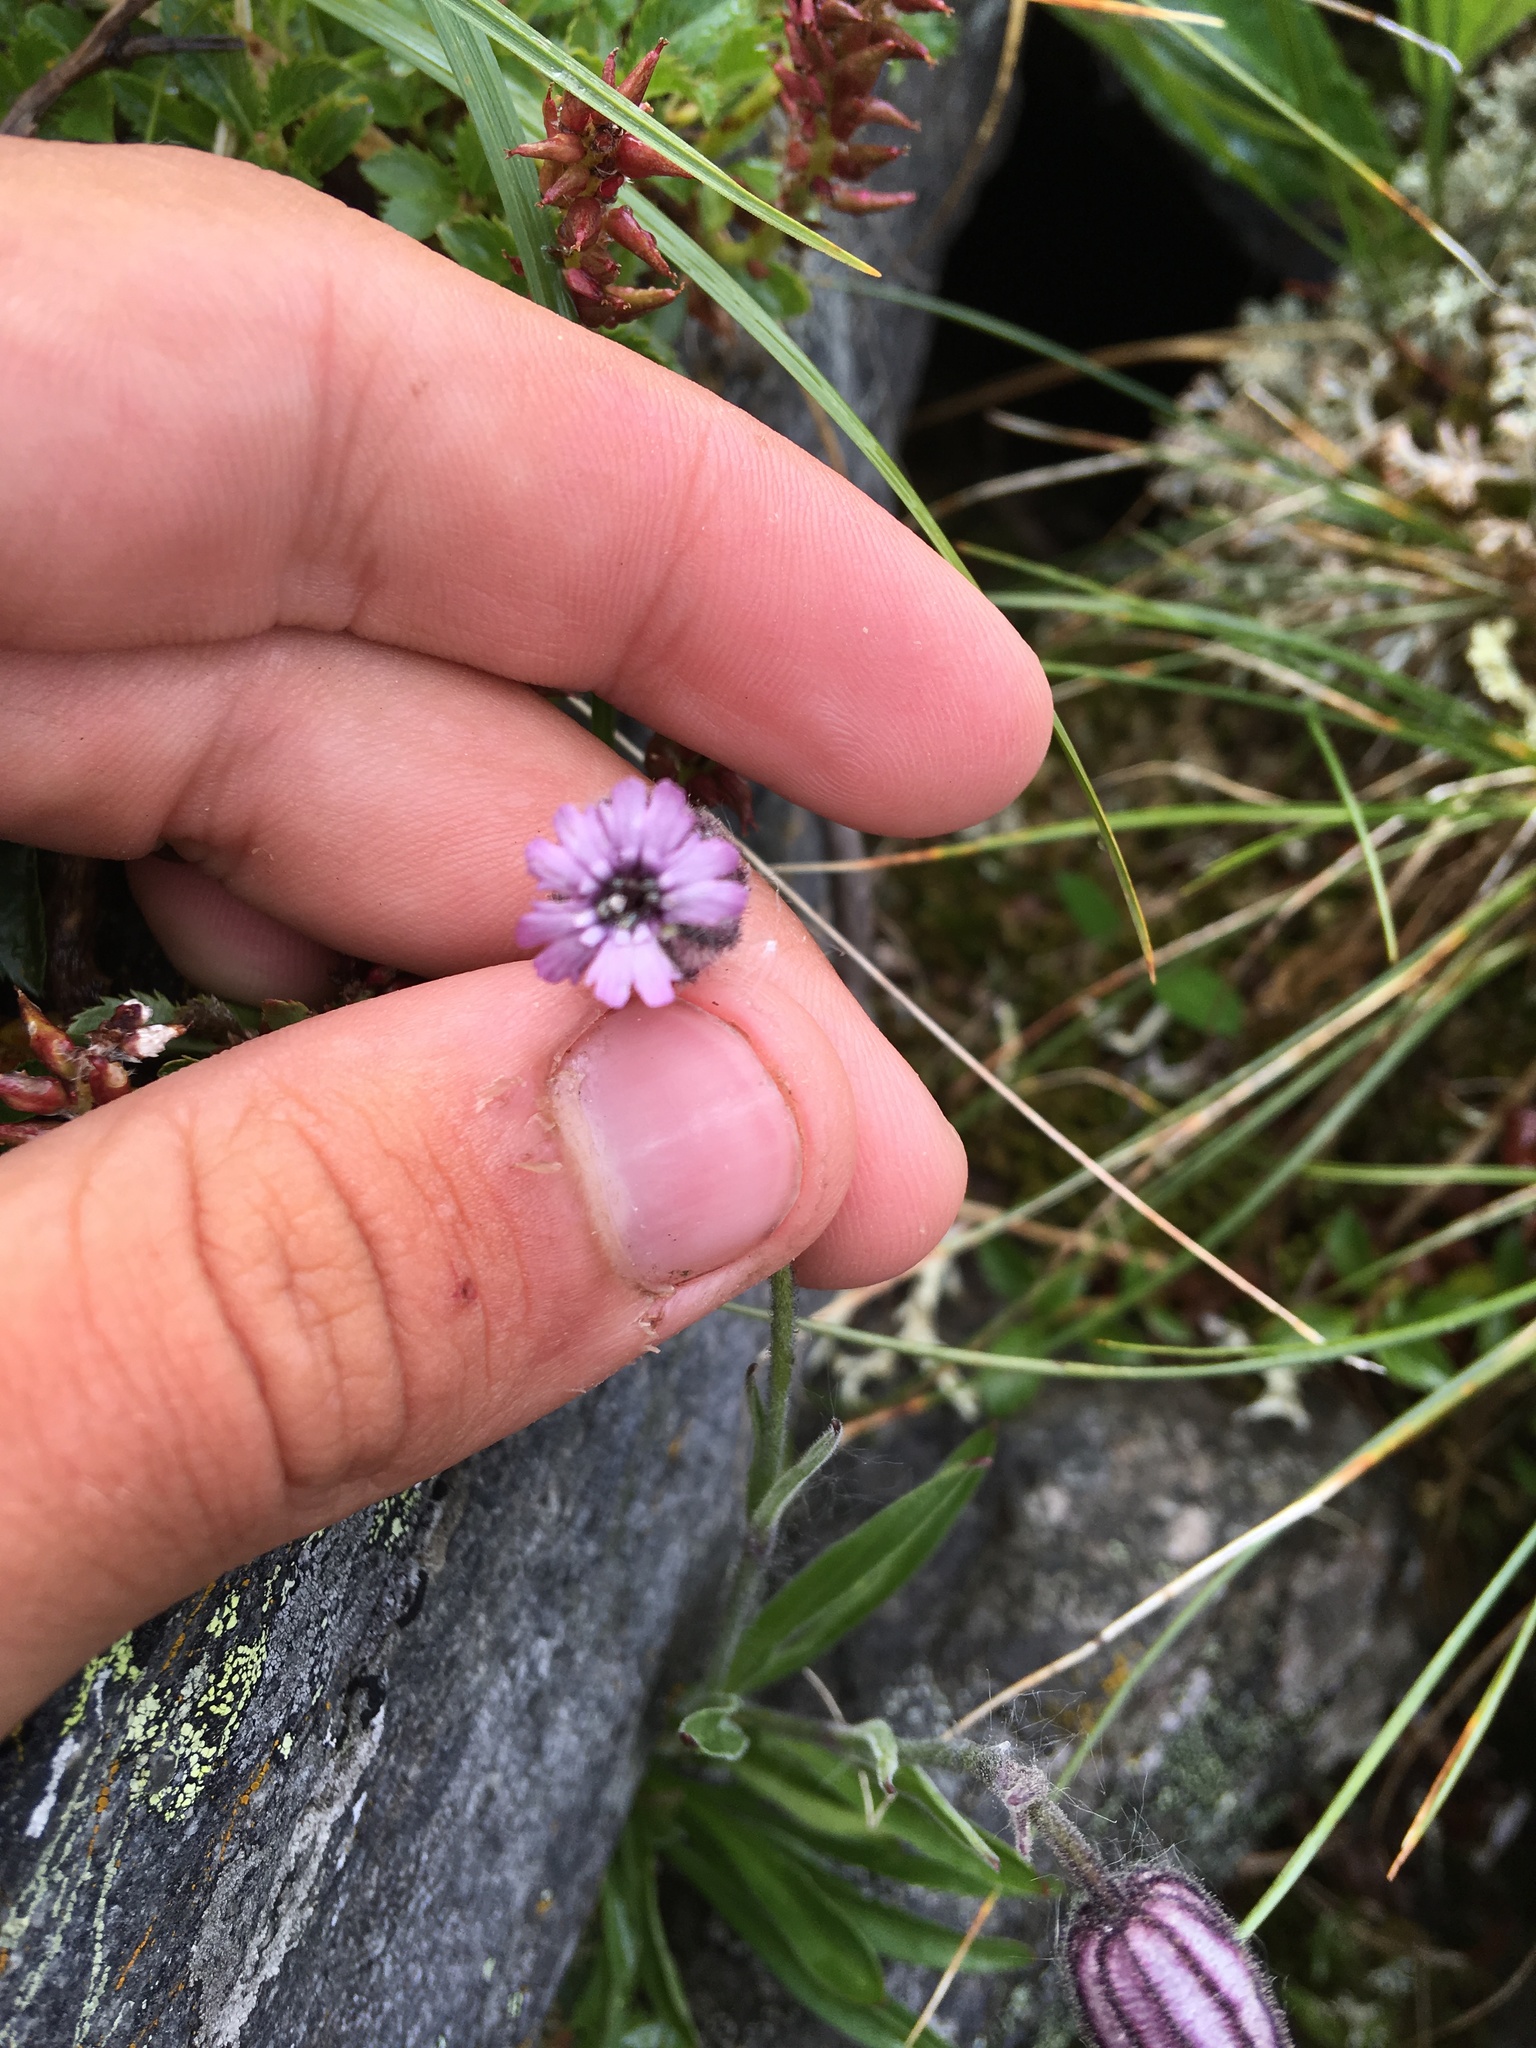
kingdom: Plantae
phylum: Tracheophyta
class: Magnoliopsida
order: Caryophyllales
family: Caryophyllaceae
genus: Silene
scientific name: Silene violascens
